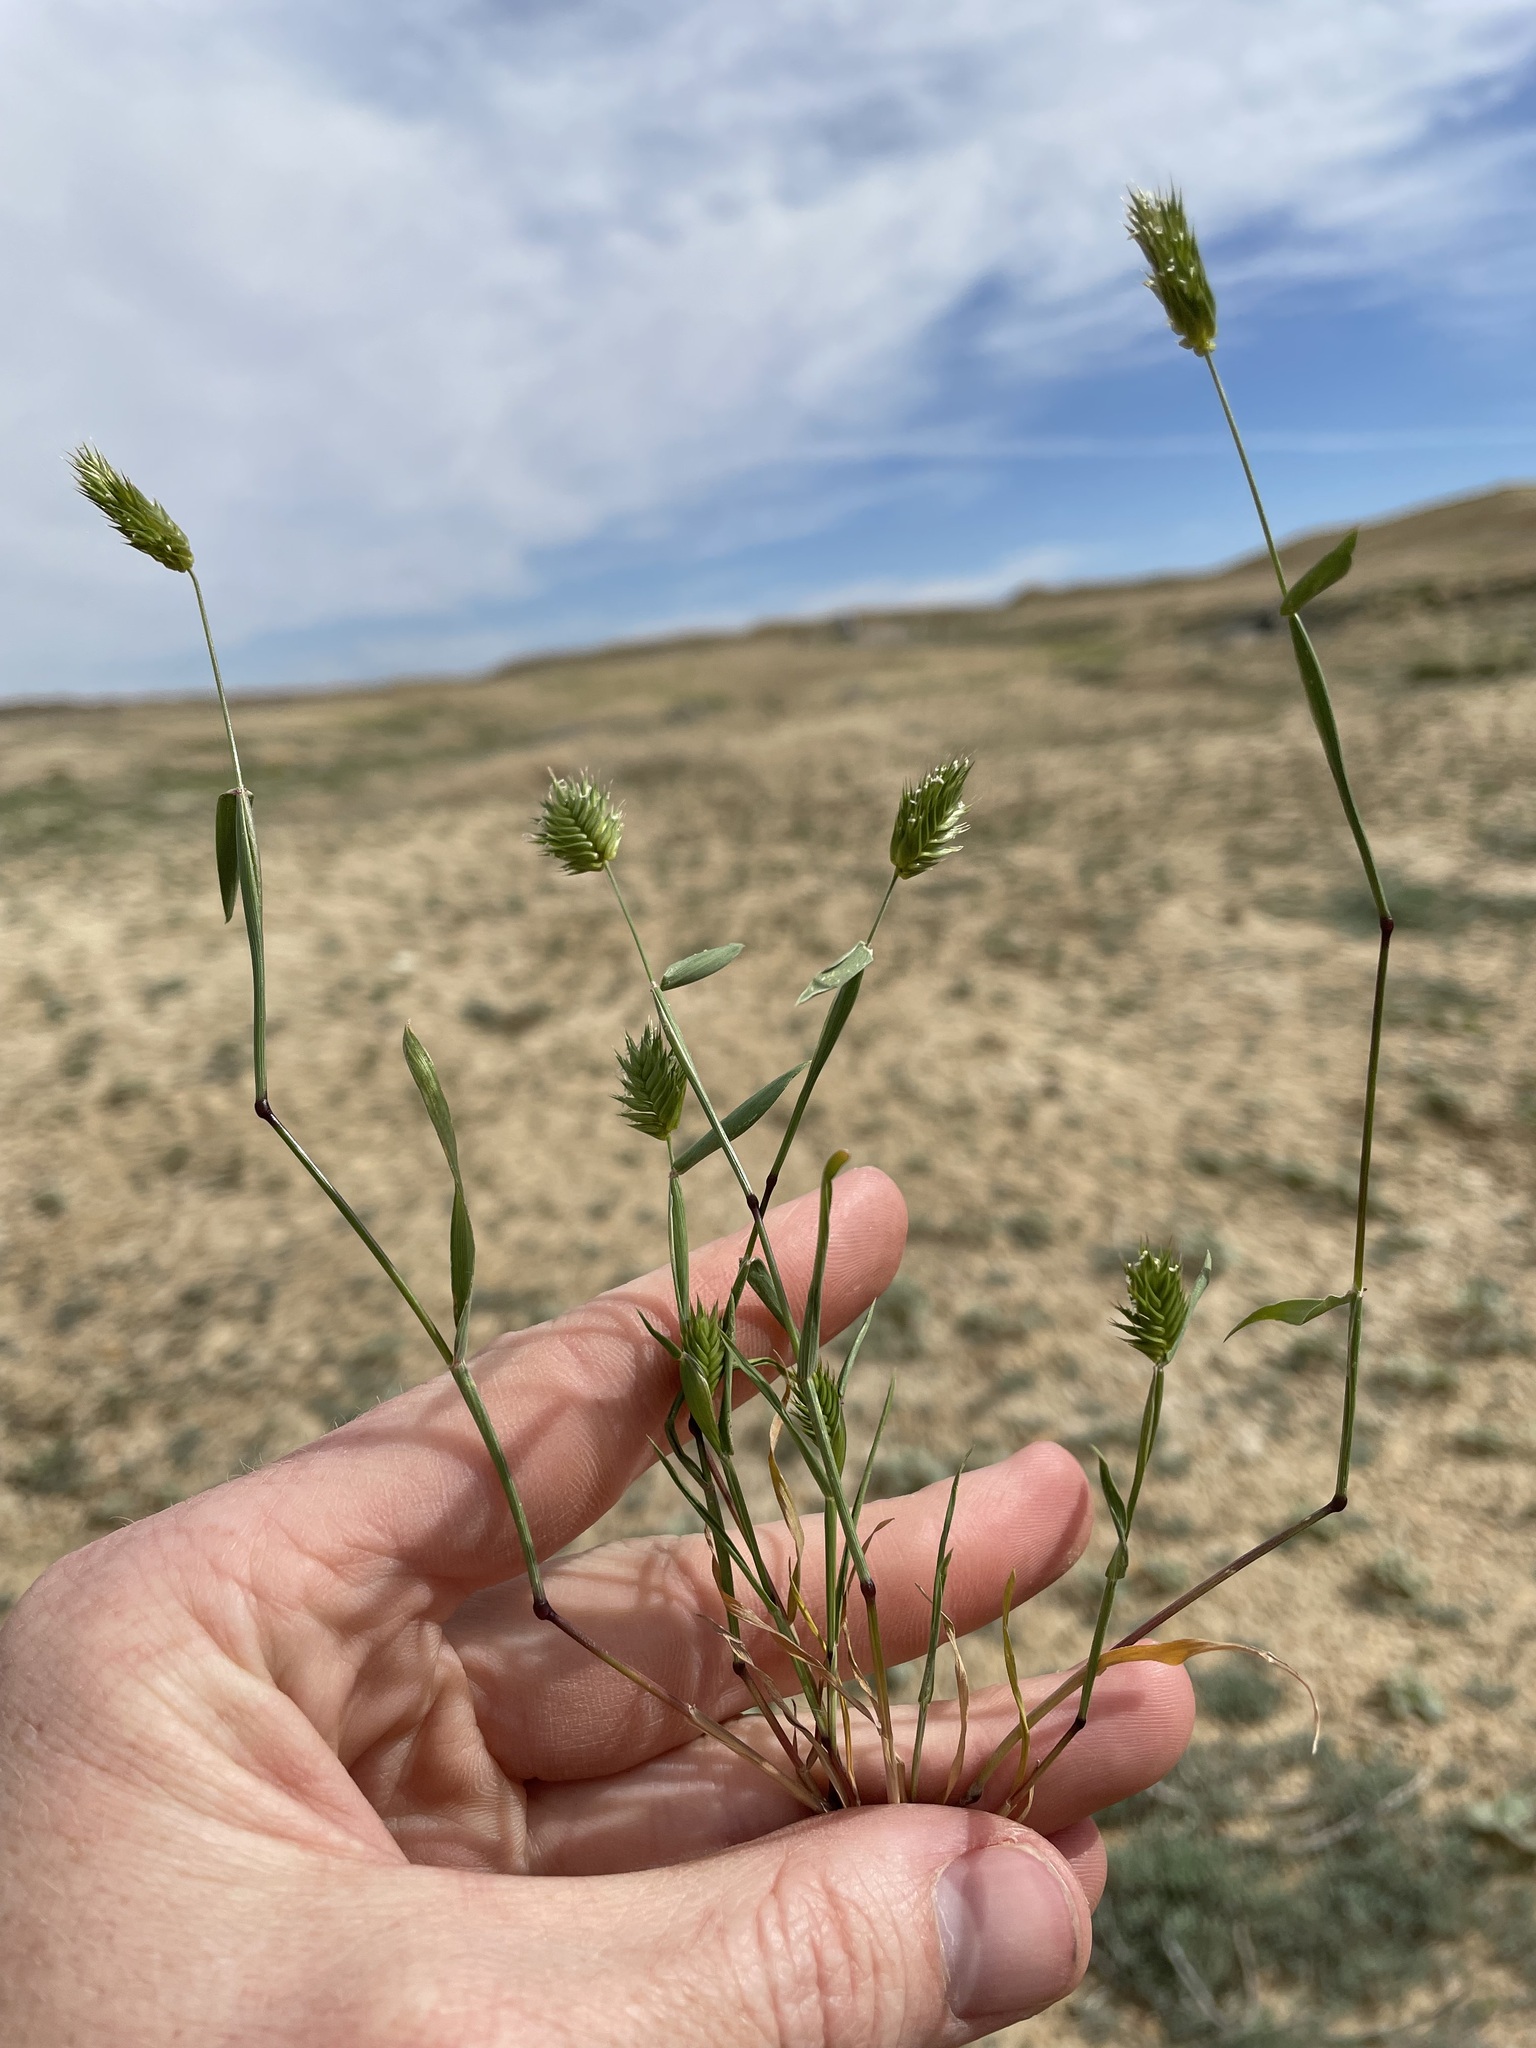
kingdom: Plantae
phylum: Tracheophyta
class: Liliopsida
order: Poales
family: Poaceae
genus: Eremopyrum
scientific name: Eremopyrum triticeum
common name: Annual wheatgrass
